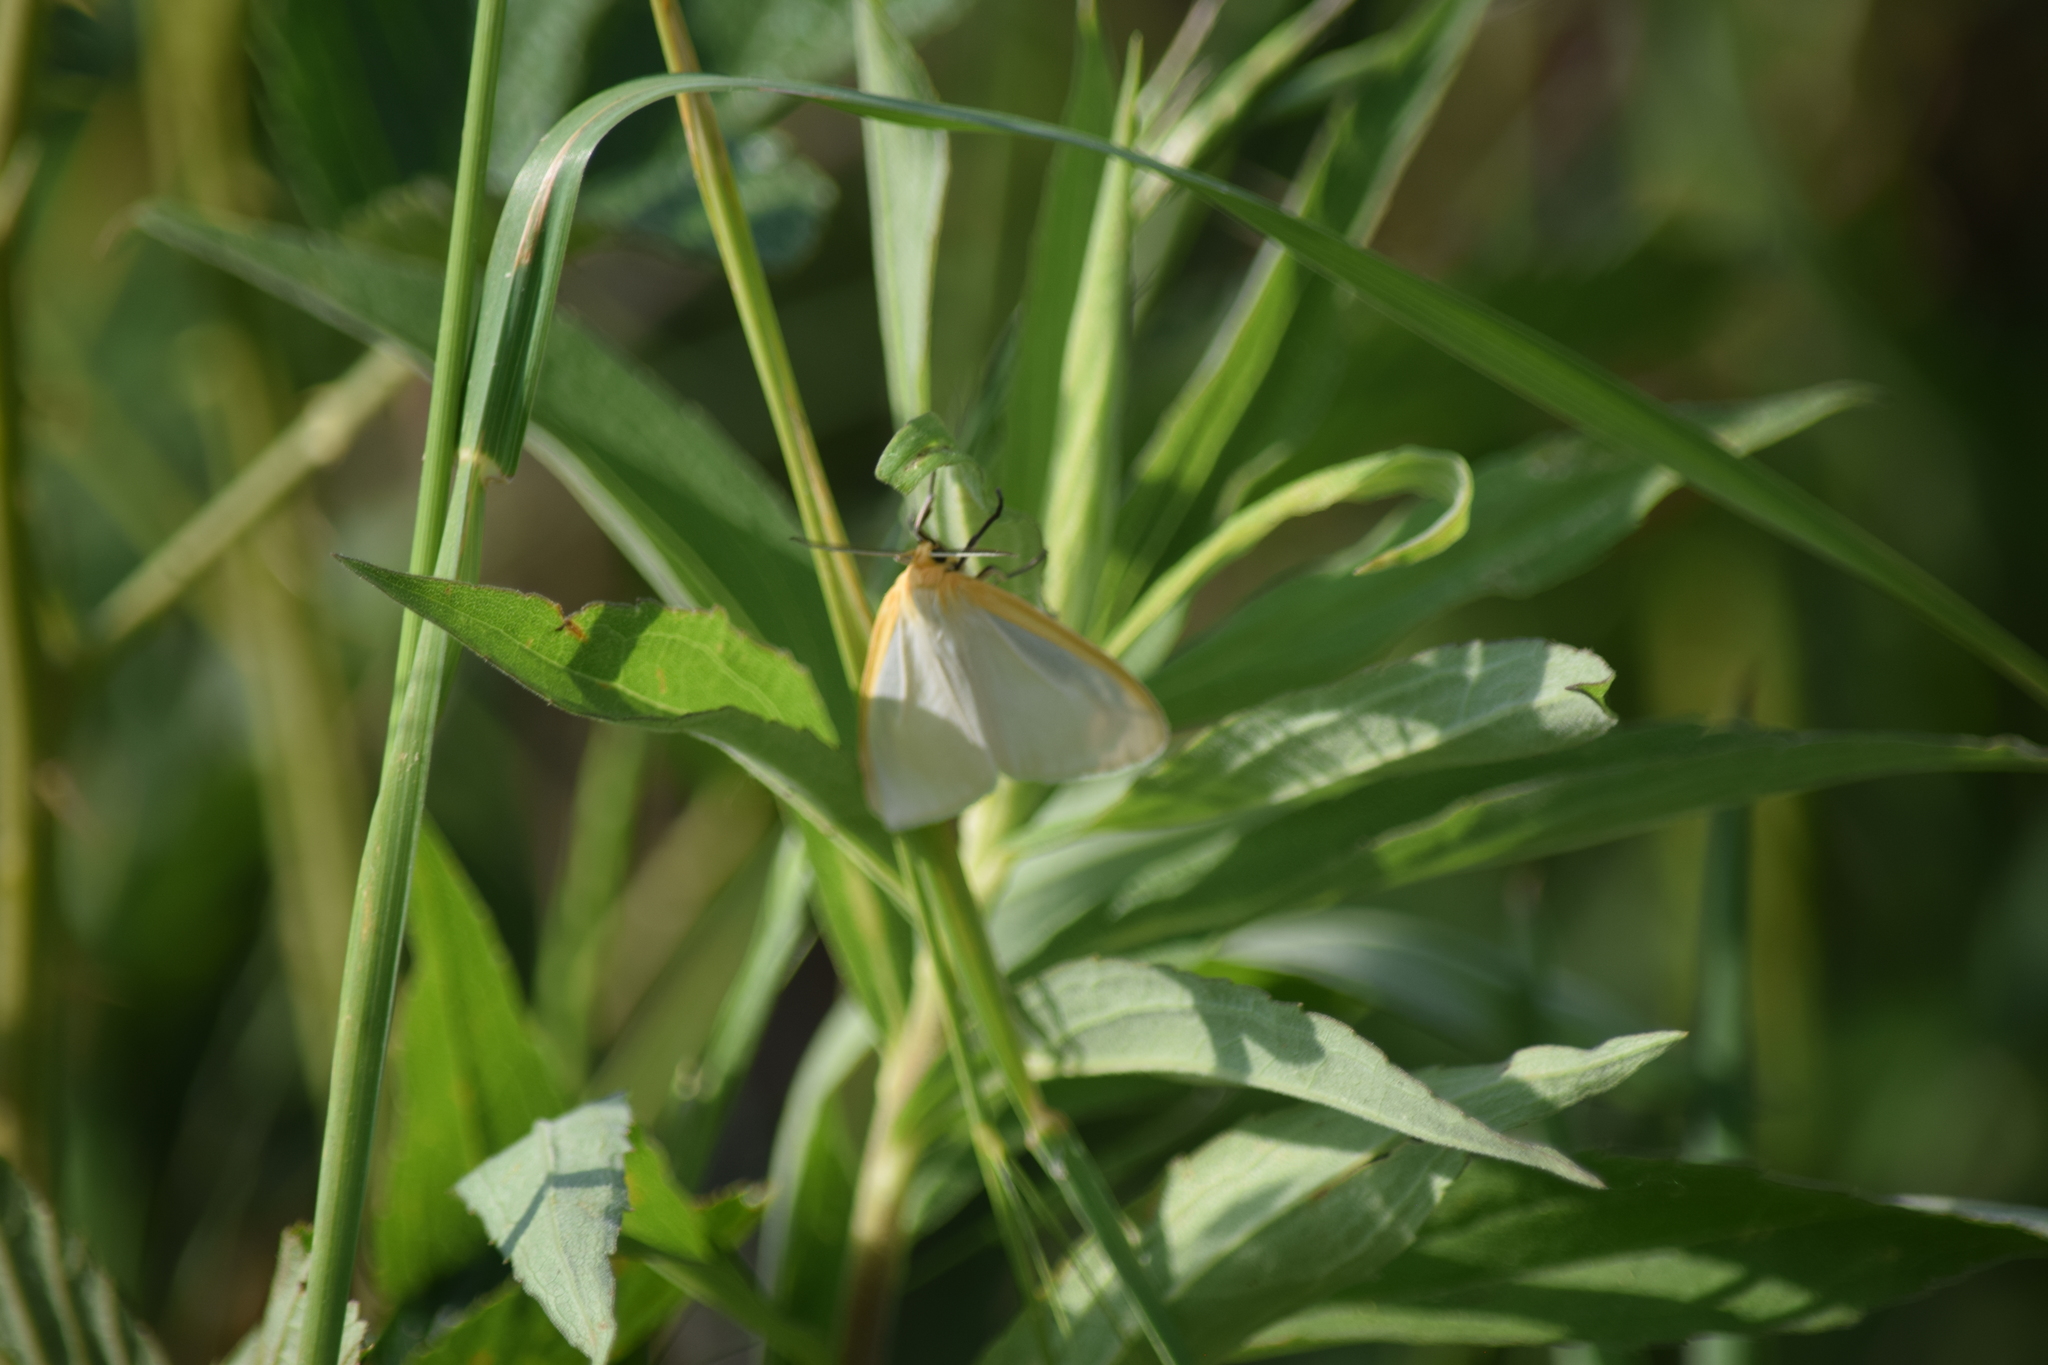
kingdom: Animalia
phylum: Arthropoda
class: Insecta
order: Lepidoptera
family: Erebidae
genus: Cycnia
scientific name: Cycnia tenera
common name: Delicate cycnia moth
